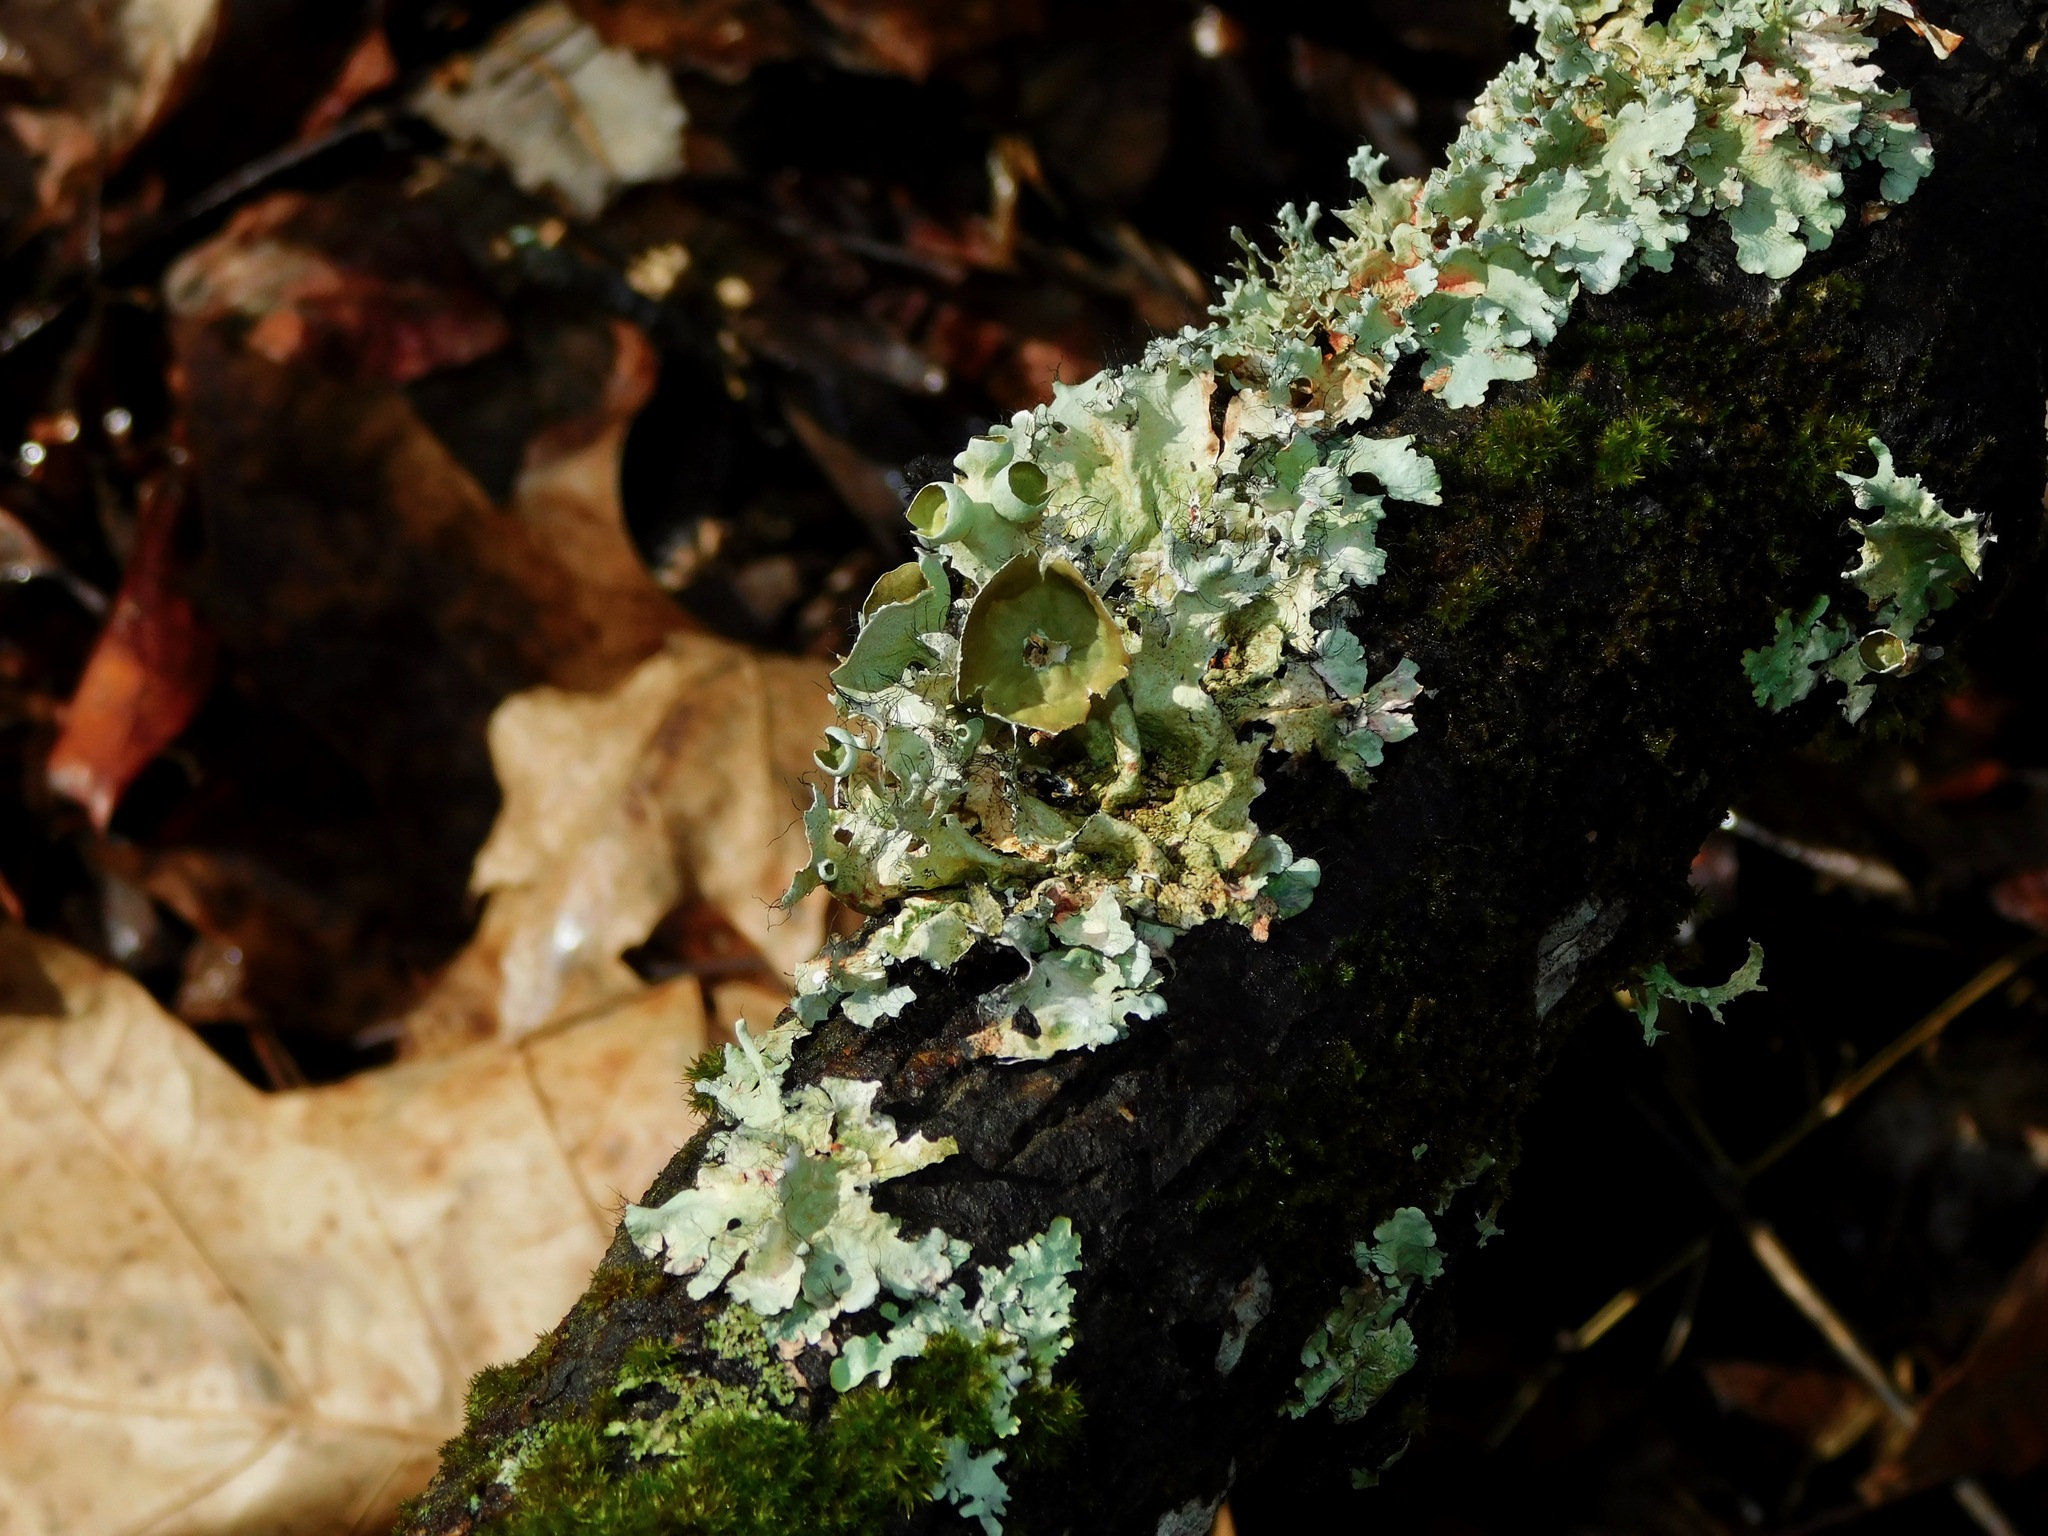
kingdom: Fungi
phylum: Ascomycota
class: Lecanoromycetes
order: Lecanorales
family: Parmeliaceae
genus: Parmotrema
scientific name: Parmotrema perforatum
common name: Perforated ruffle lichen
